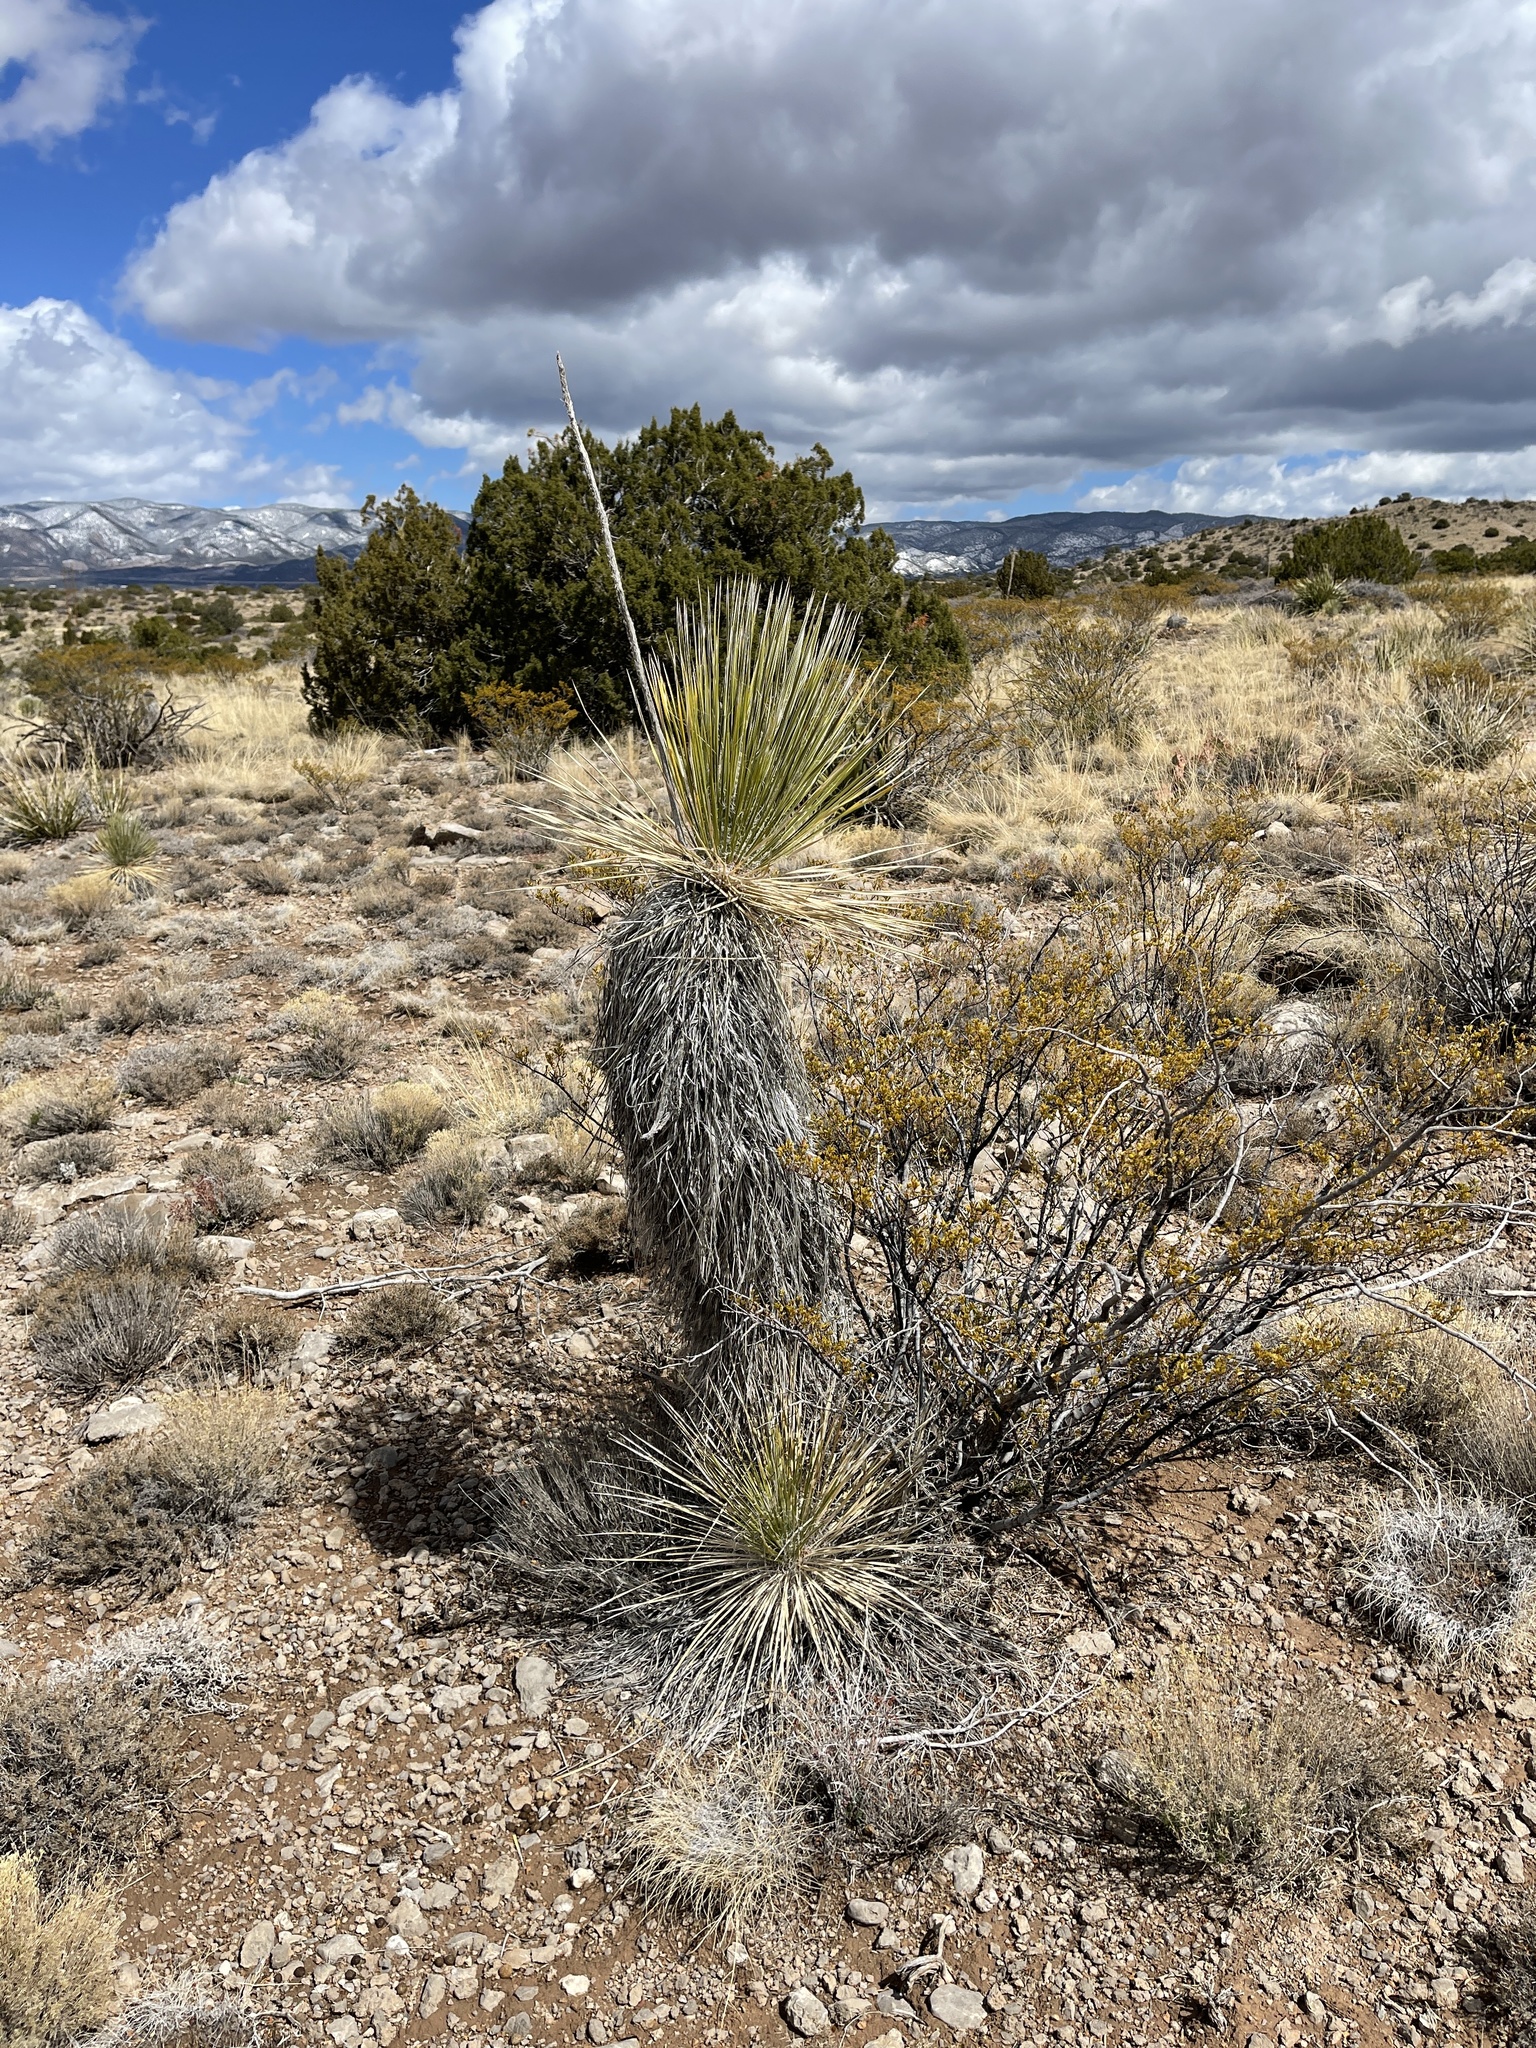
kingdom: Plantae
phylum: Tracheophyta
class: Liliopsida
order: Asparagales
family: Asparagaceae
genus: Yucca
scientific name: Yucca elata
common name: Palmella
